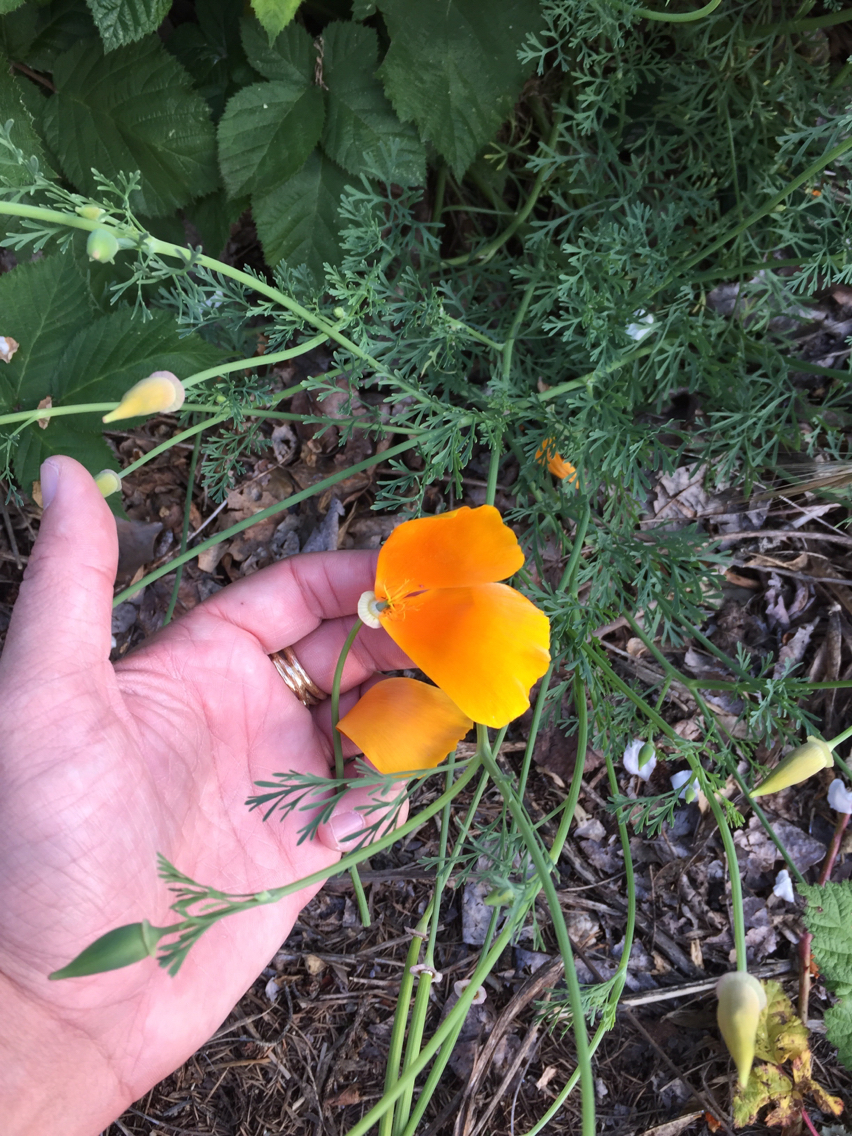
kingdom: Plantae
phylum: Tracheophyta
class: Magnoliopsida
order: Ranunculales
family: Papaveraceae
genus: Eschscholzia
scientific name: Eschscholzia californica
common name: California poppy
